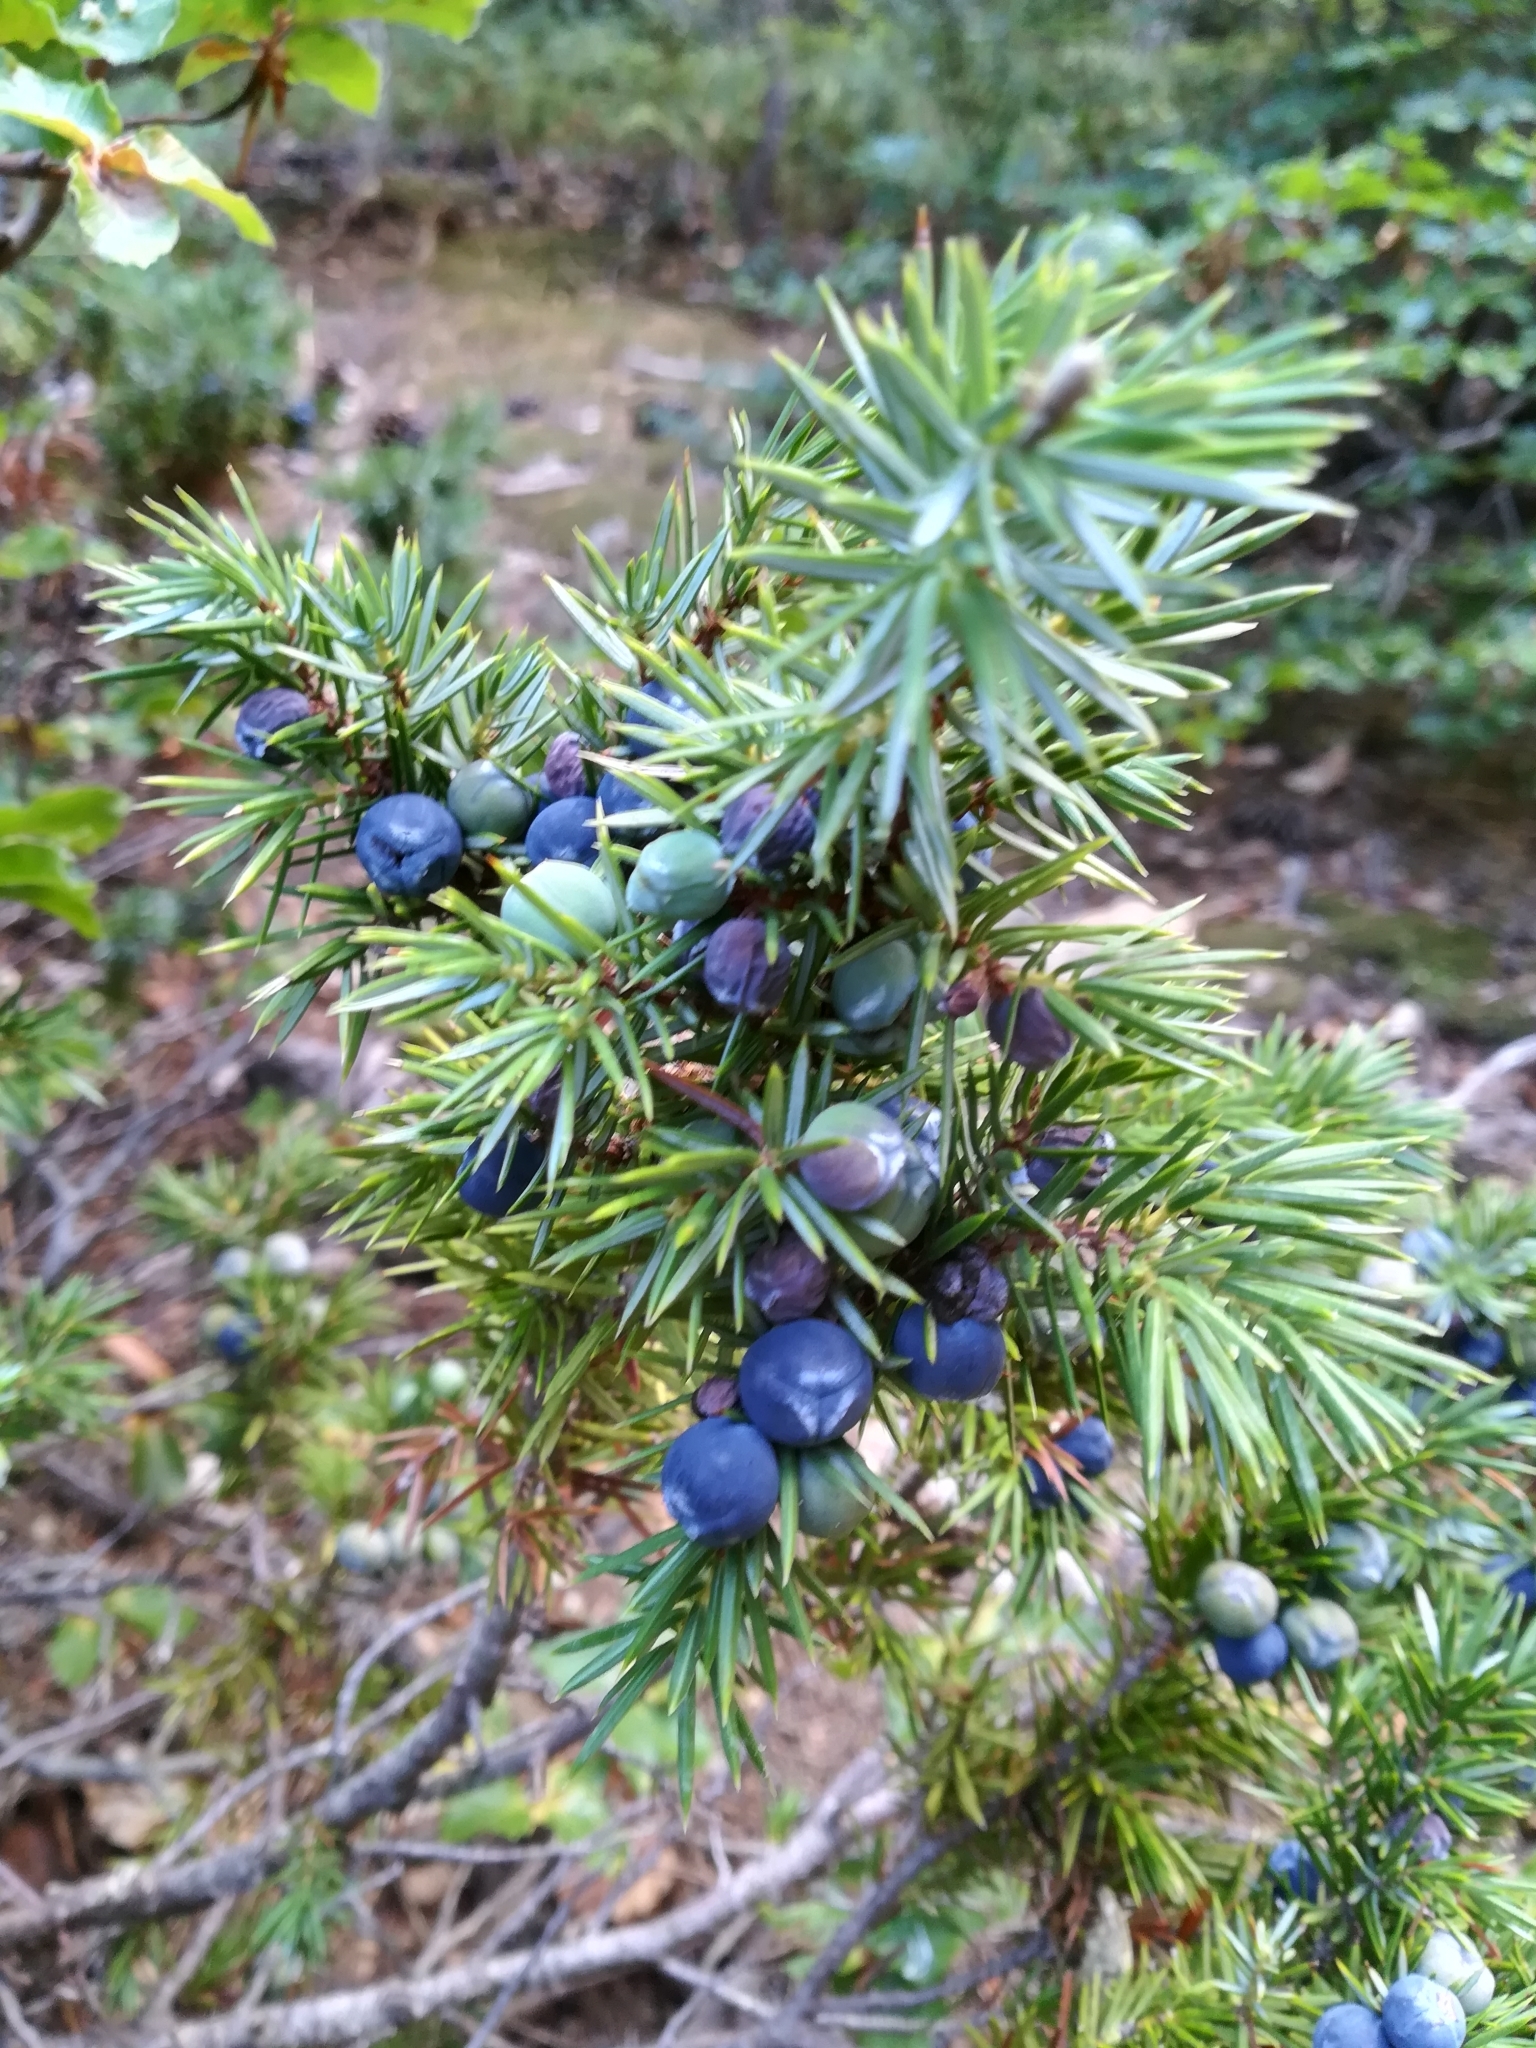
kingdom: Plantae
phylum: Tracheophyta
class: Pinopsida
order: Pinales
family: Cupressaceae
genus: Juniperus
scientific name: Juniperus communis
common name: Common juniper
